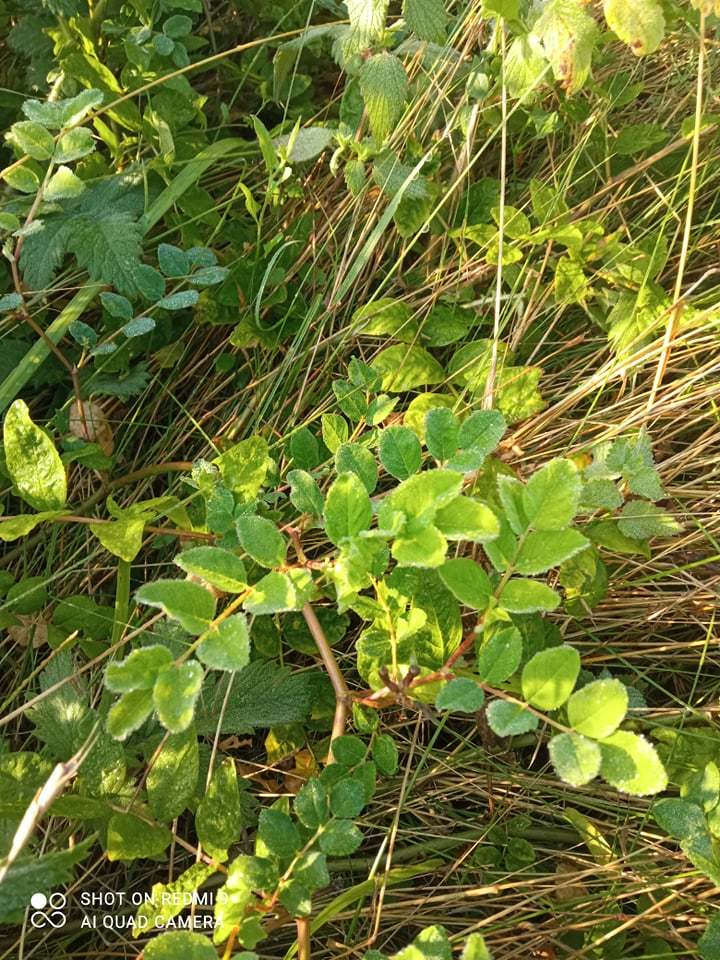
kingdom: Plantae
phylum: Tracheophyta
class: Magnoliopsida
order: Fabales
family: Fabaceae
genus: Astragalus
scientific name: Astragalus glycyphyllos
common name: Wild liquorice
